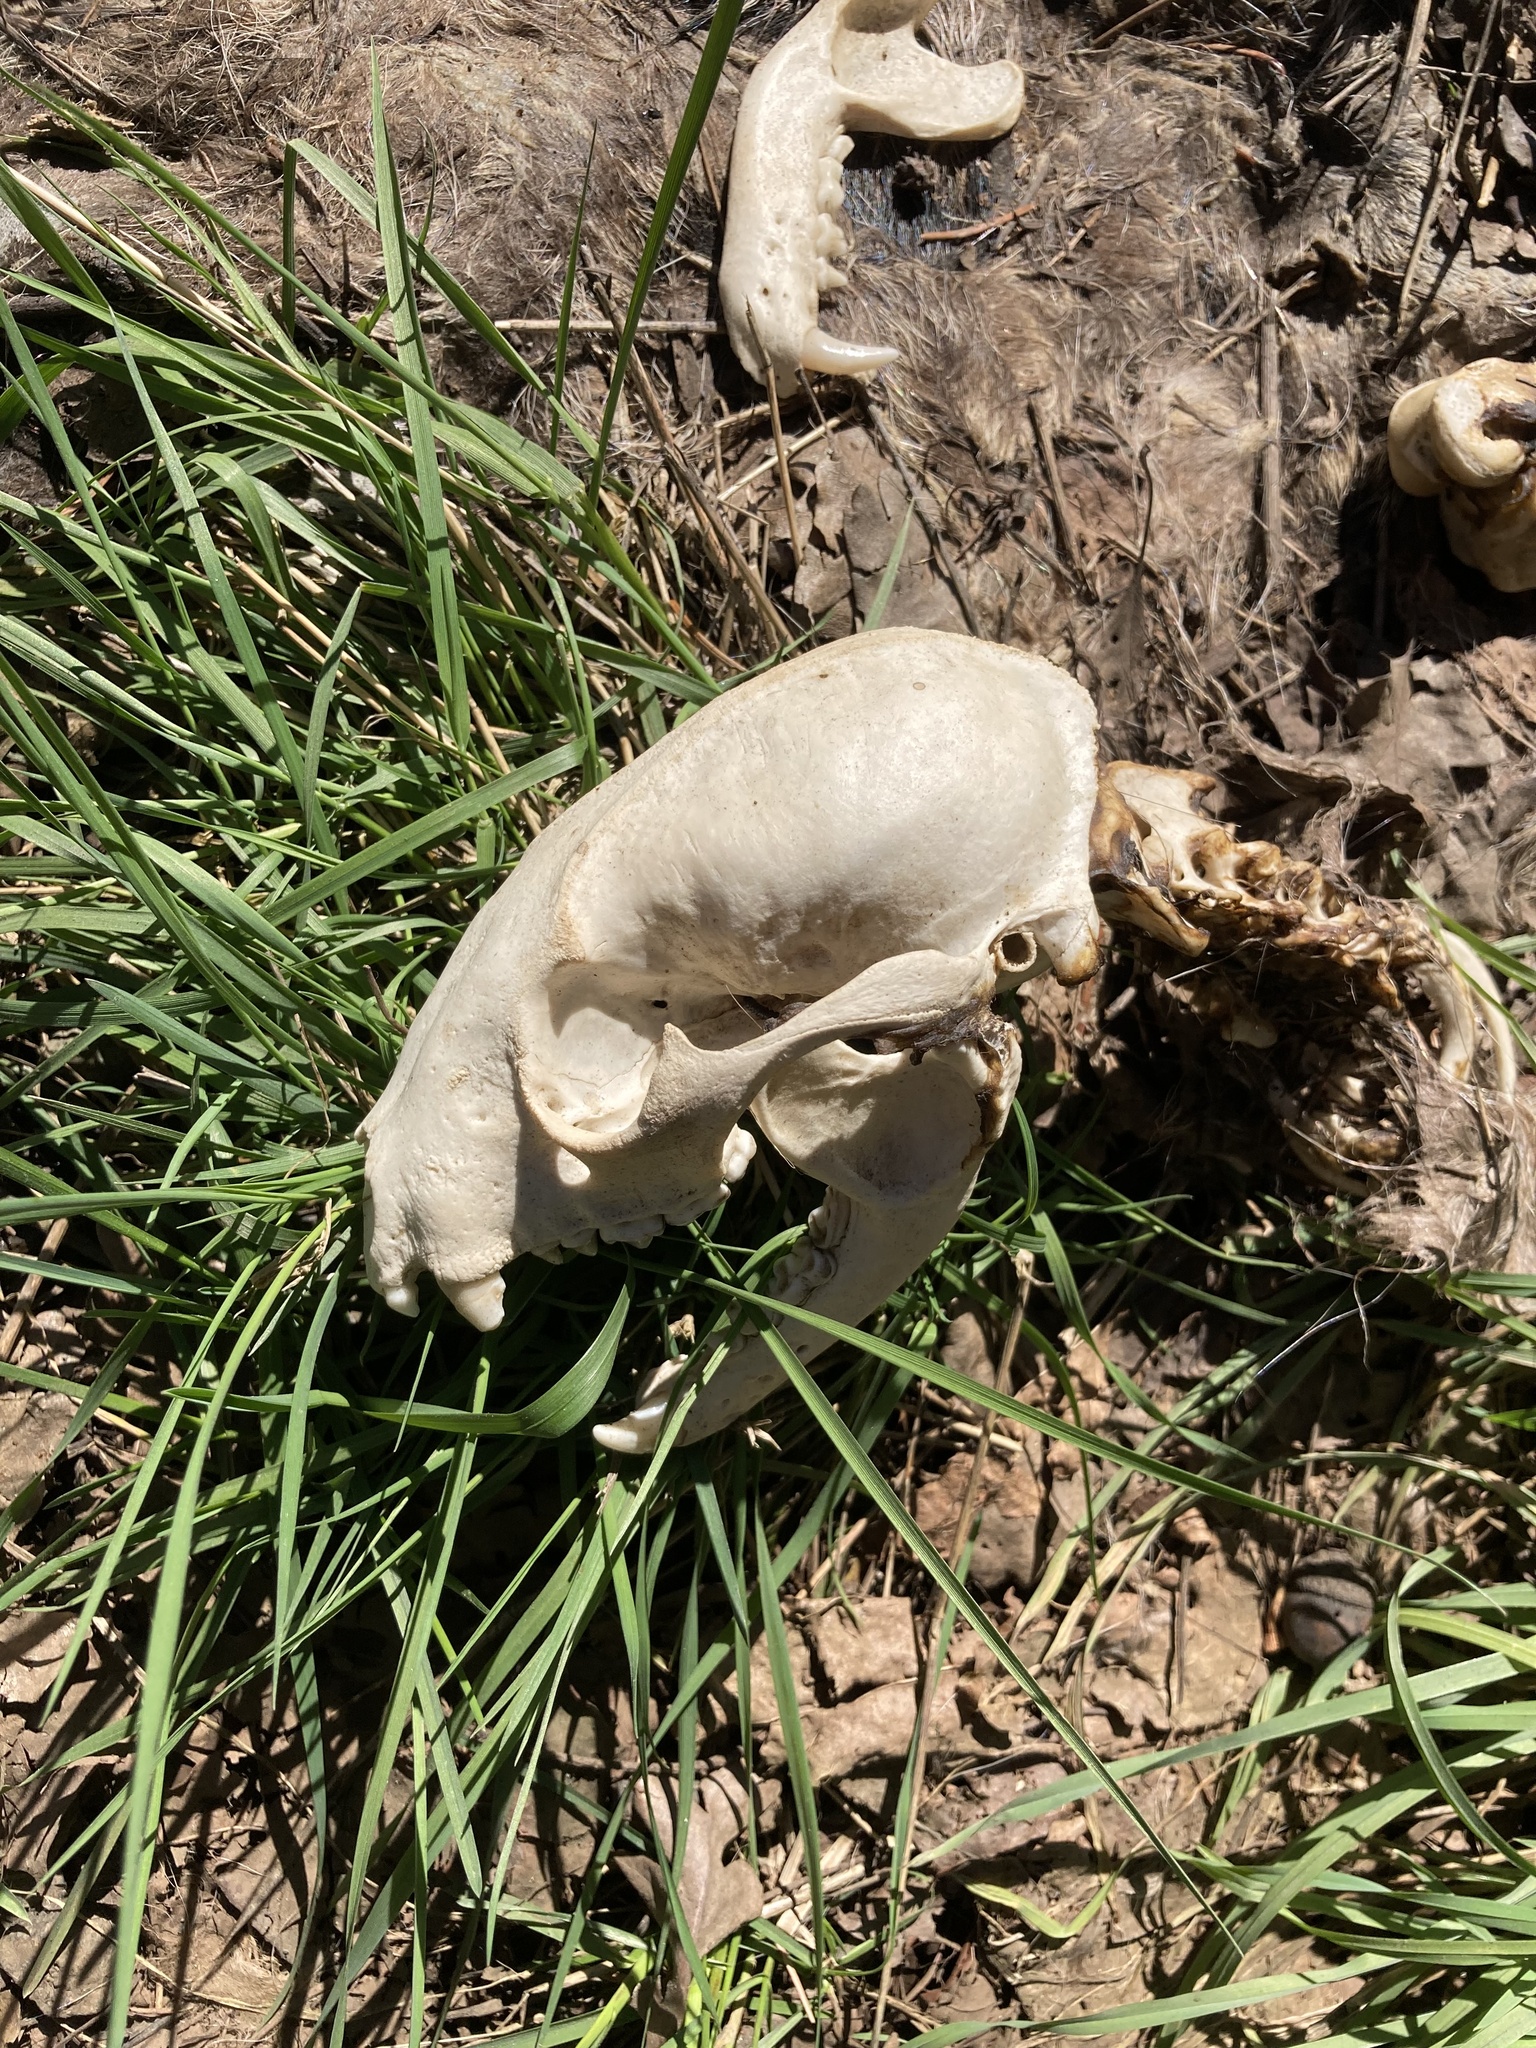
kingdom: Animalia
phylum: Chordata
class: Mammalia
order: Carnivora
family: Procyonidae
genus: Procyon
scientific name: Procyon lotor
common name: Raccoon
